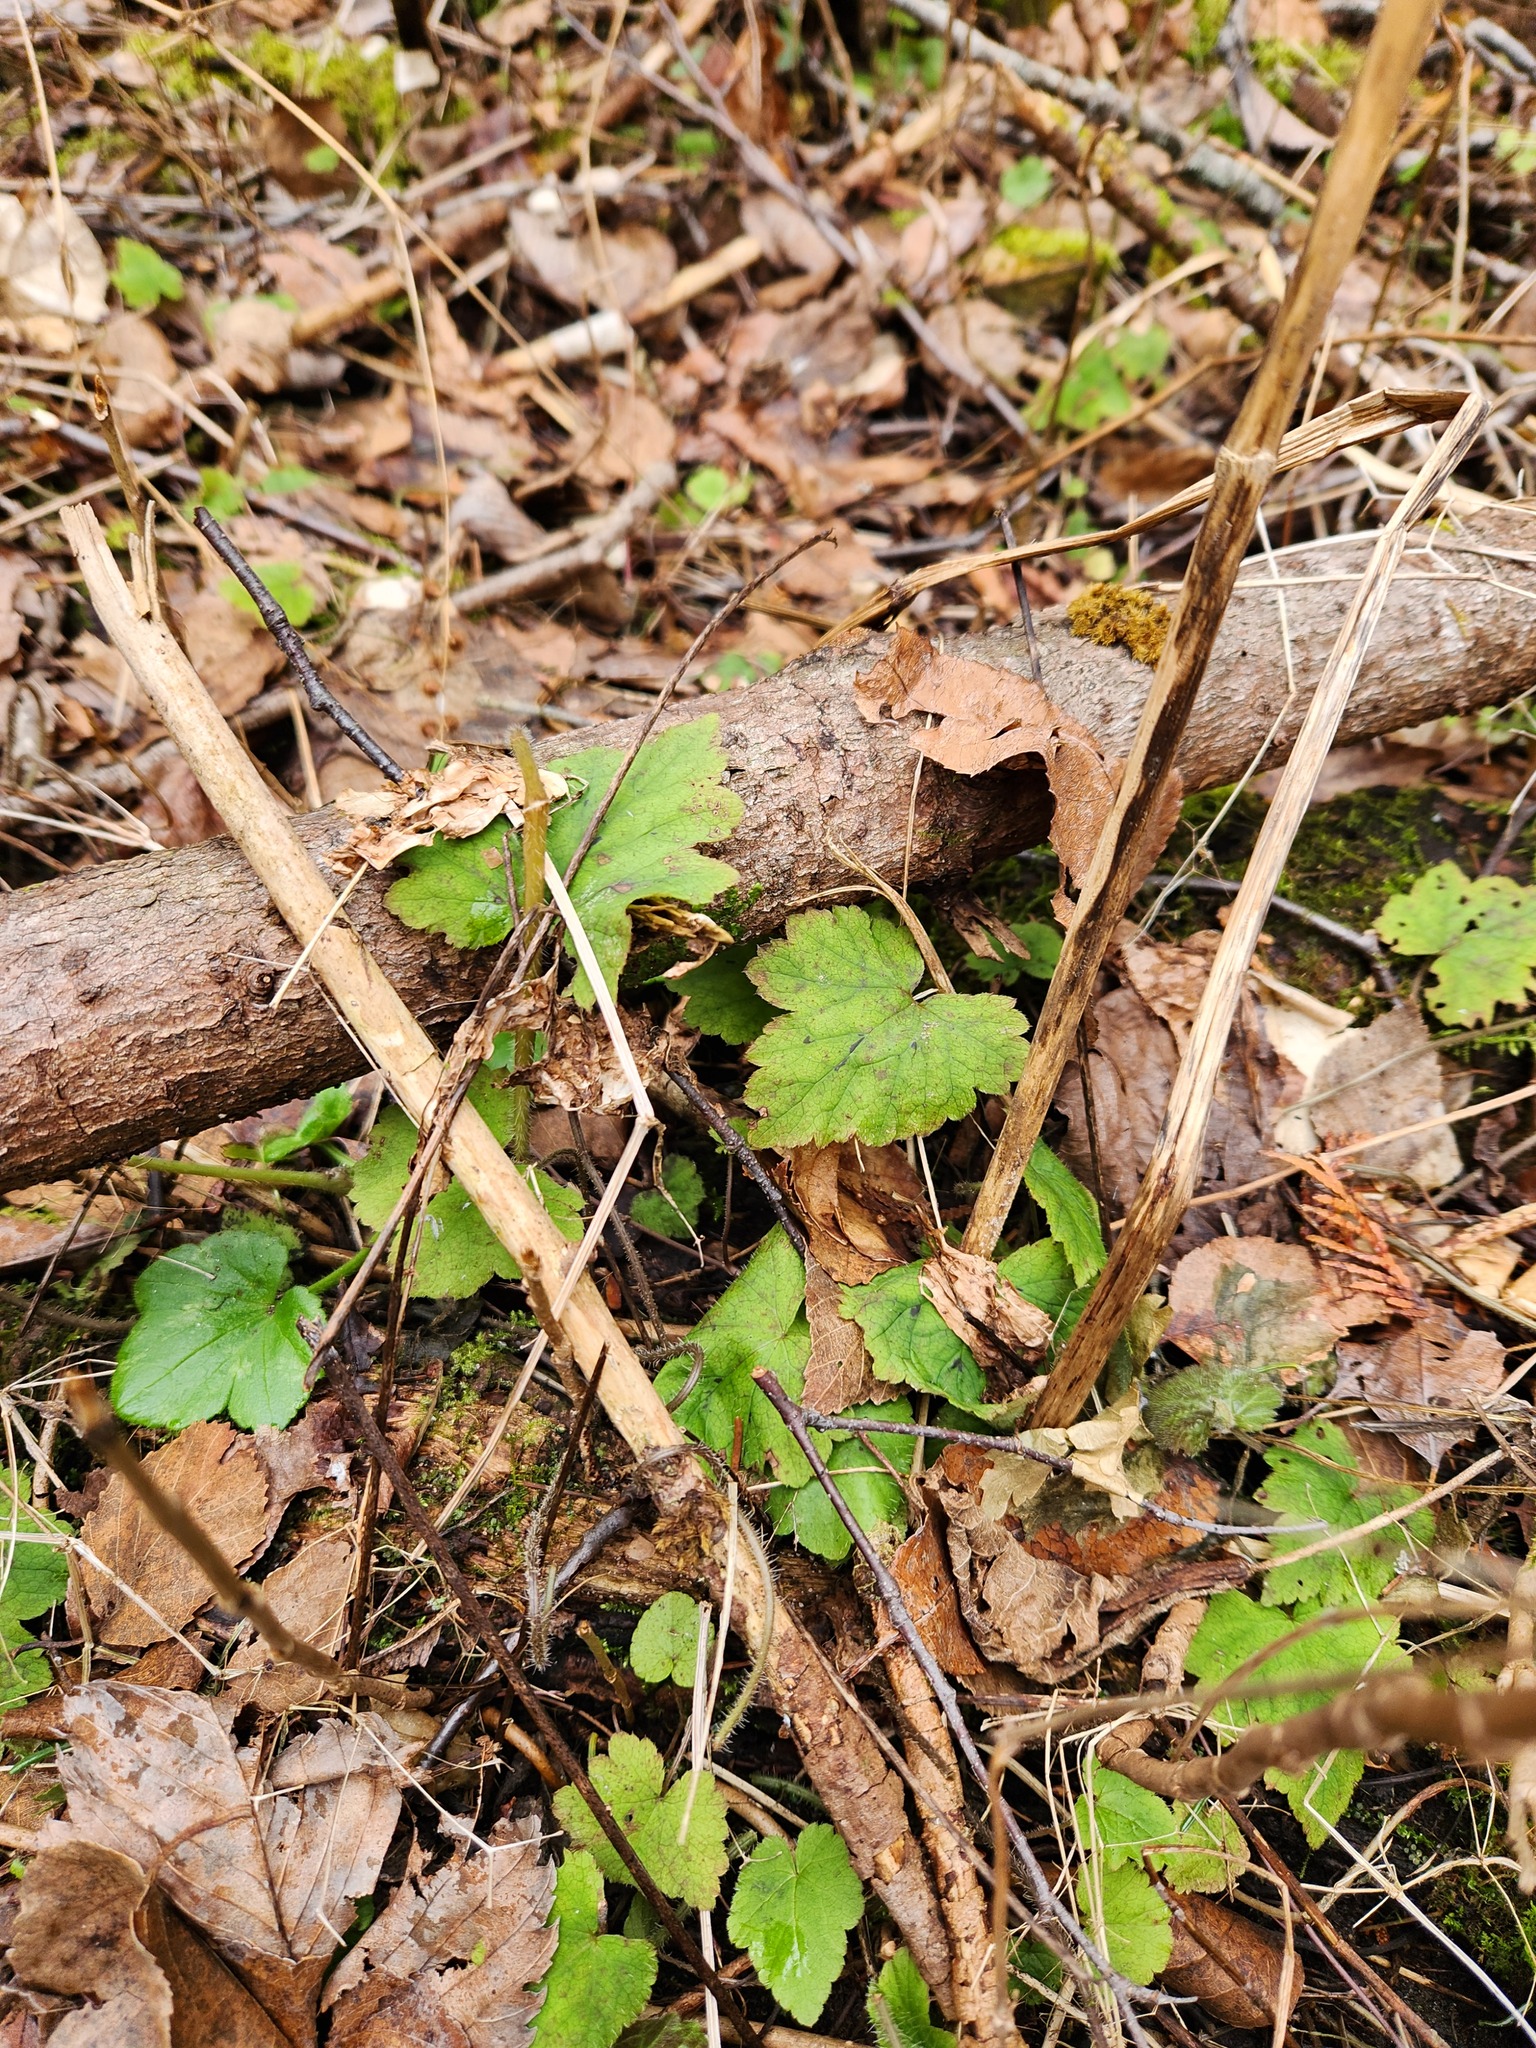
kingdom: Plantae
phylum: Tracheophyta
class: Magnoliopsida
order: Saxifragales
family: Saxifragaceae
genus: Tiarella
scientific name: Tiarella stolonifera
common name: Stoloniferous foamflower
